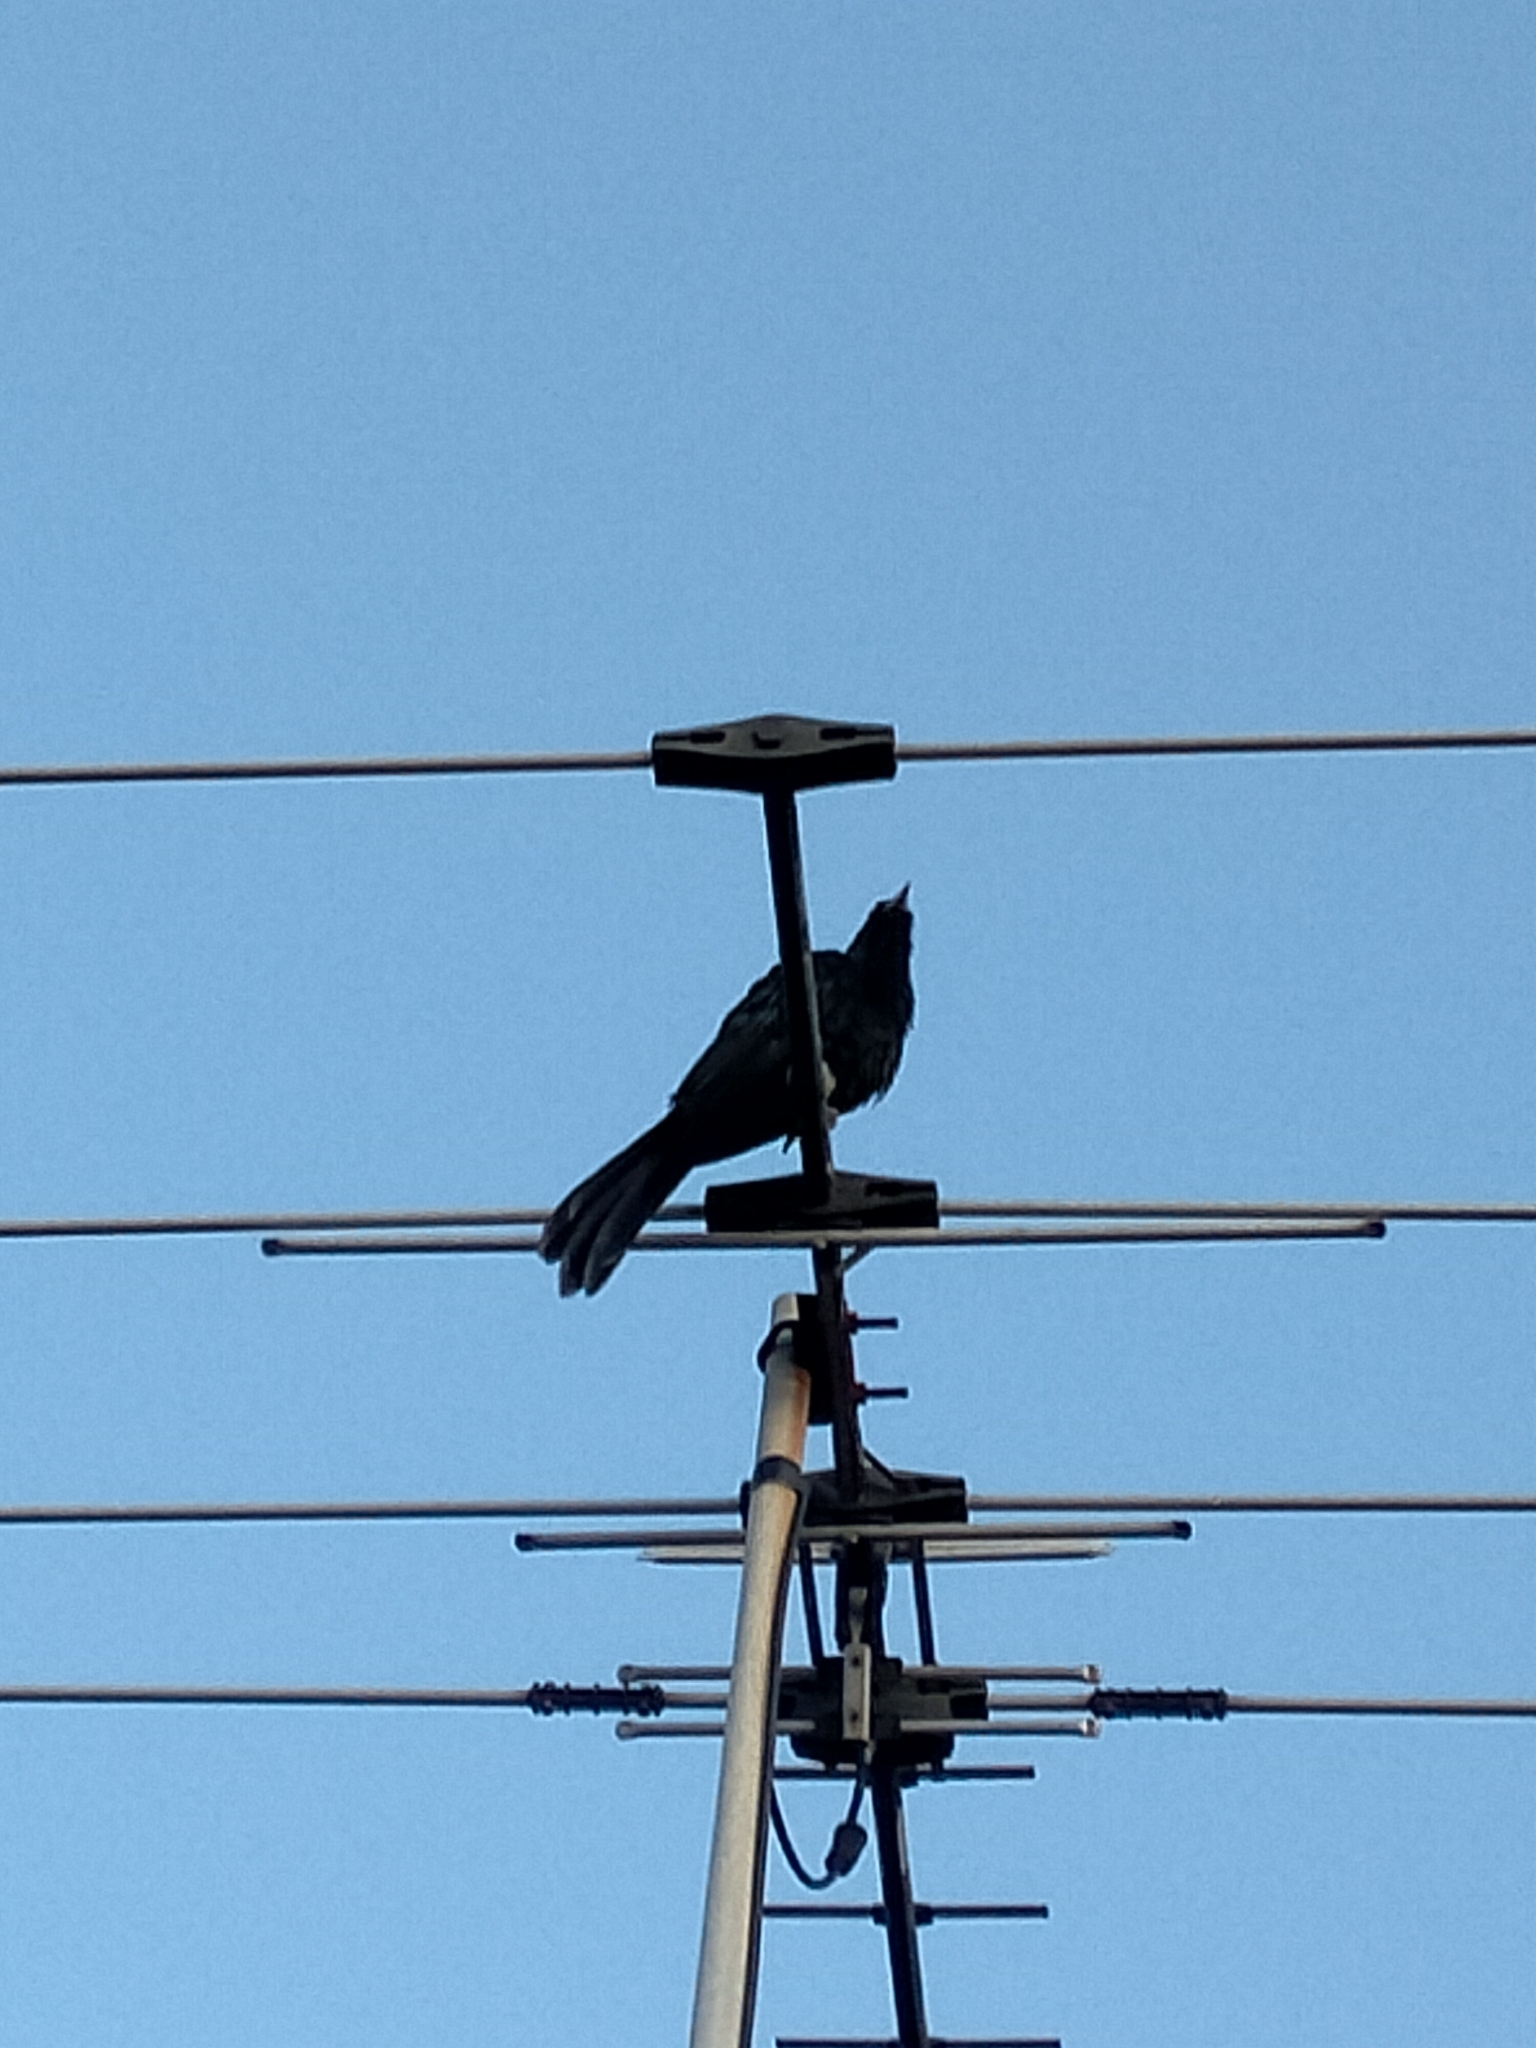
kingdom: Animalia
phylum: Chordata
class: Aves
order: Cuculiformes
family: Cuculidae
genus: Eudynamys
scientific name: Eudynamys orientalis
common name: Pacific koel
